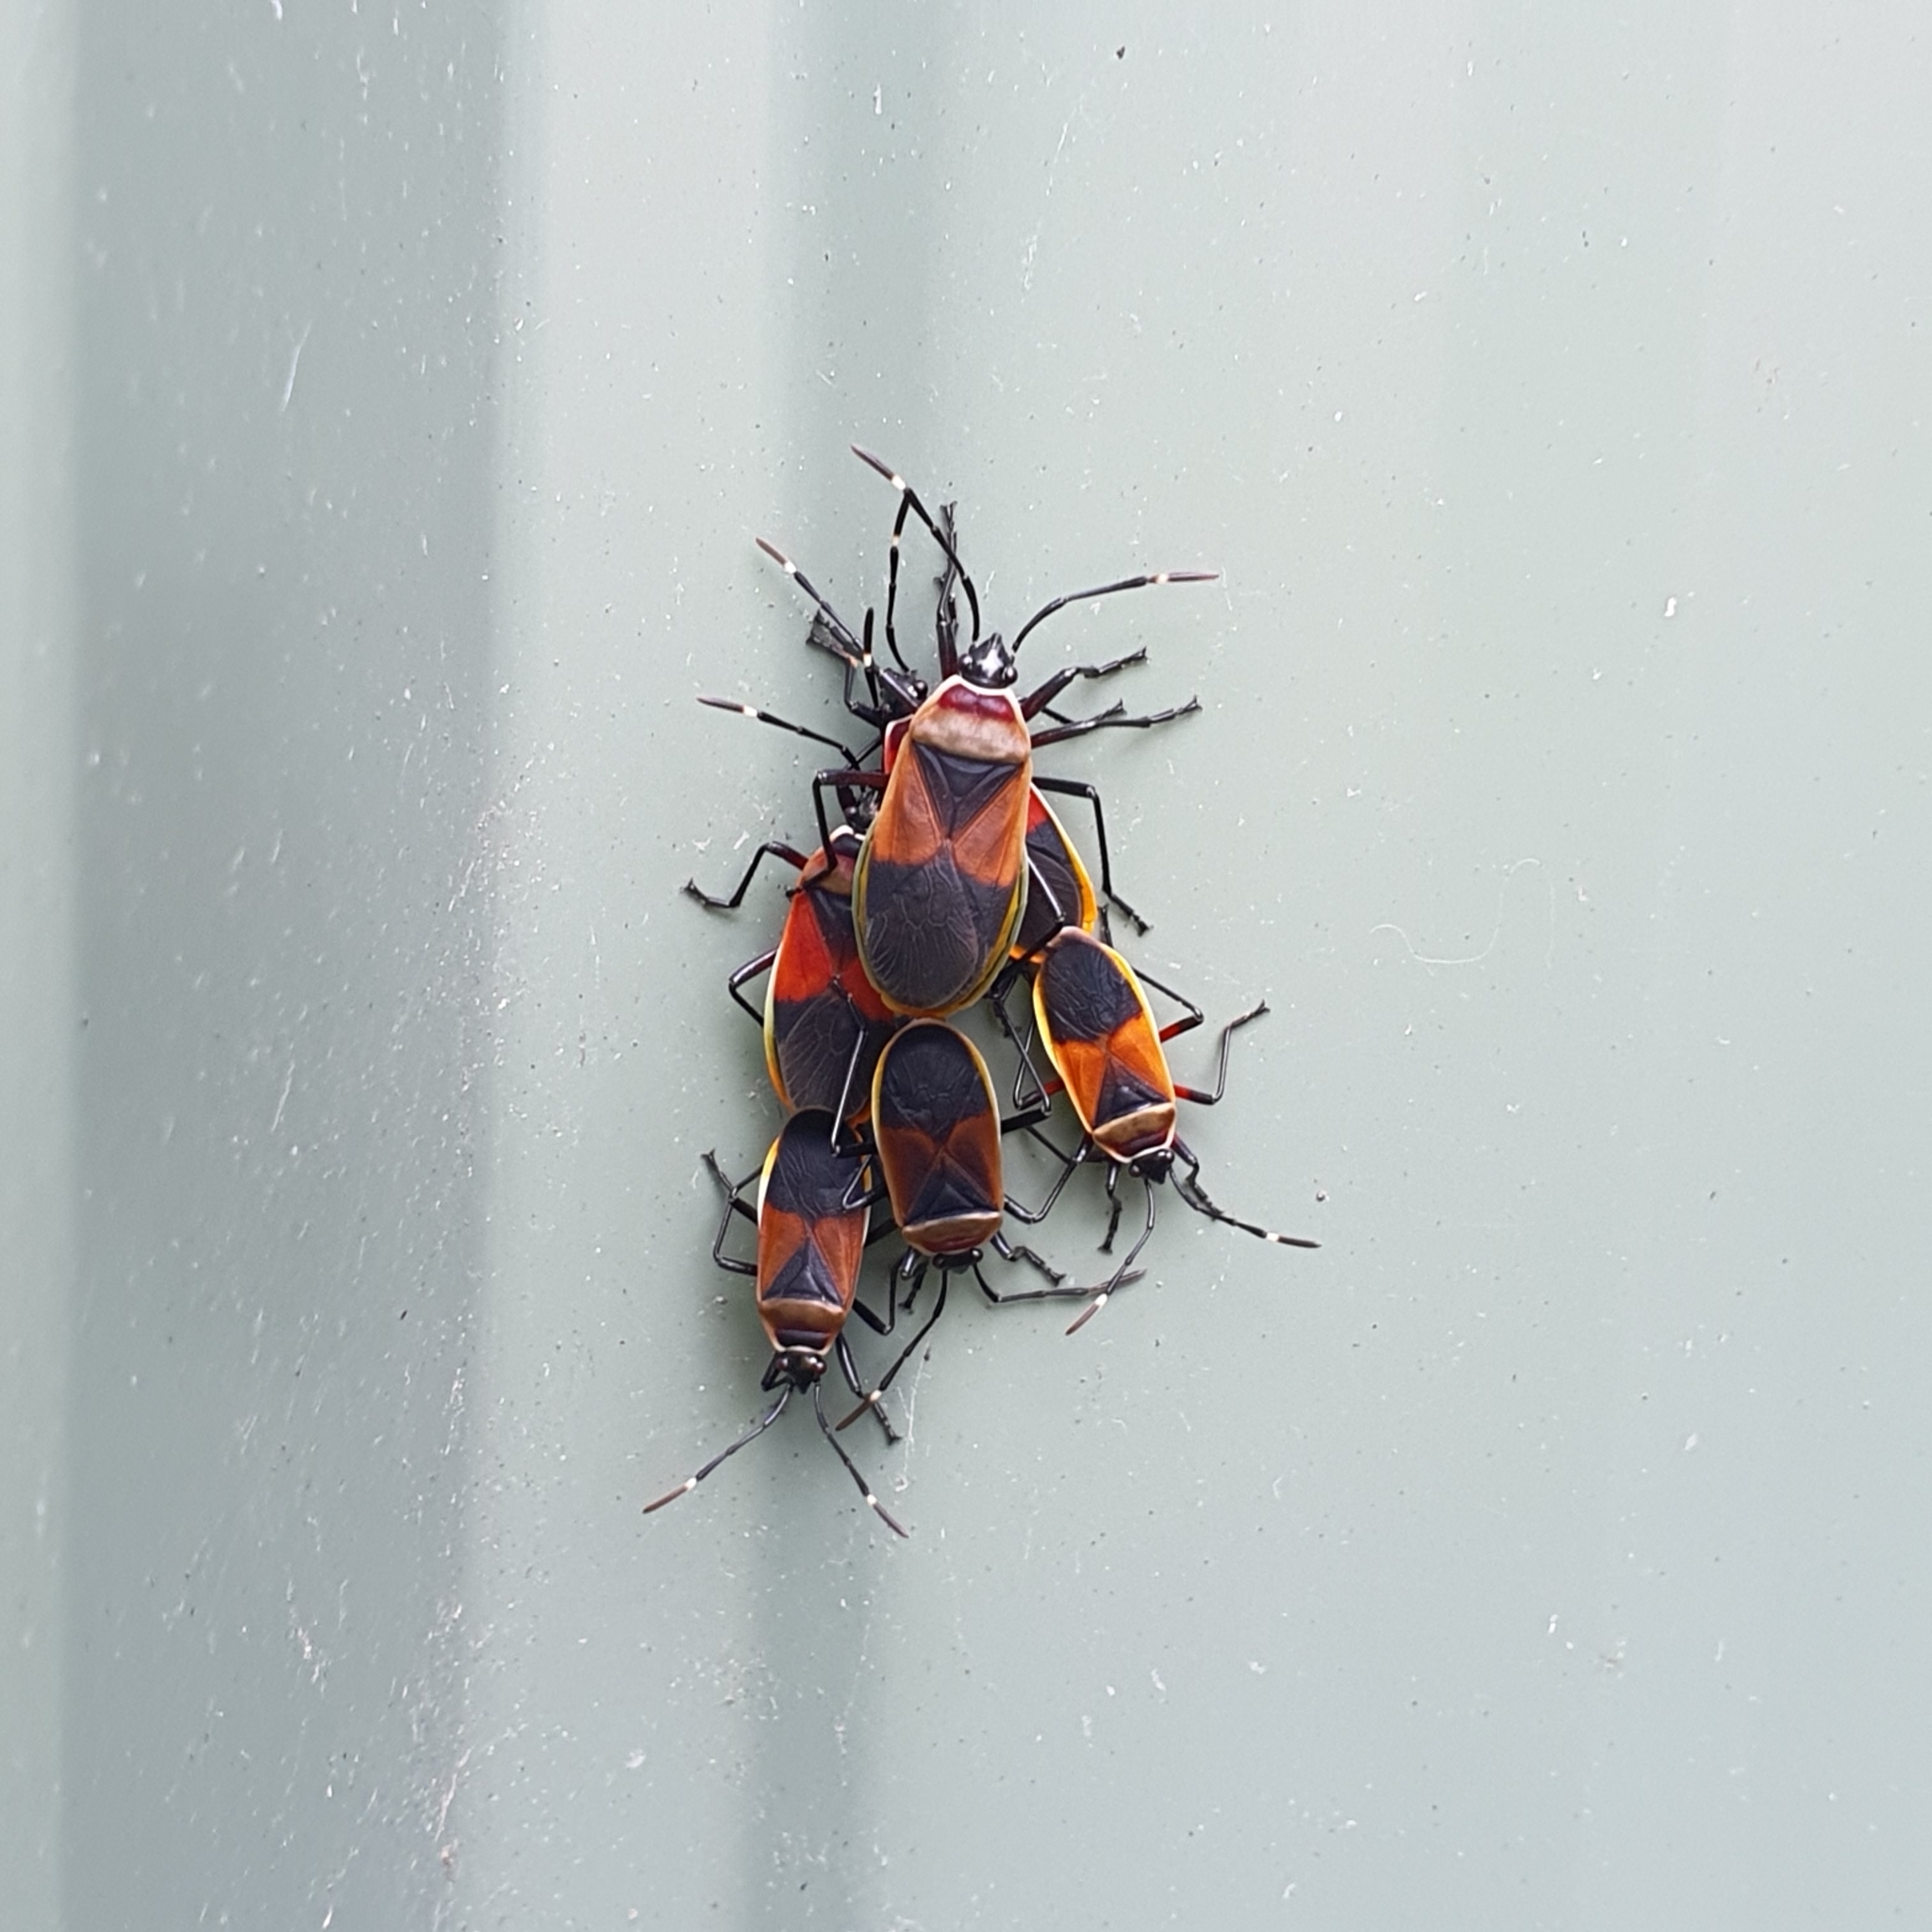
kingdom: Animalia
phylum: Arthropoda
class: Insecta
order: Hemiptera
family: Pyrrhocoridae
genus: Dindymus
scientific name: Dindymus
